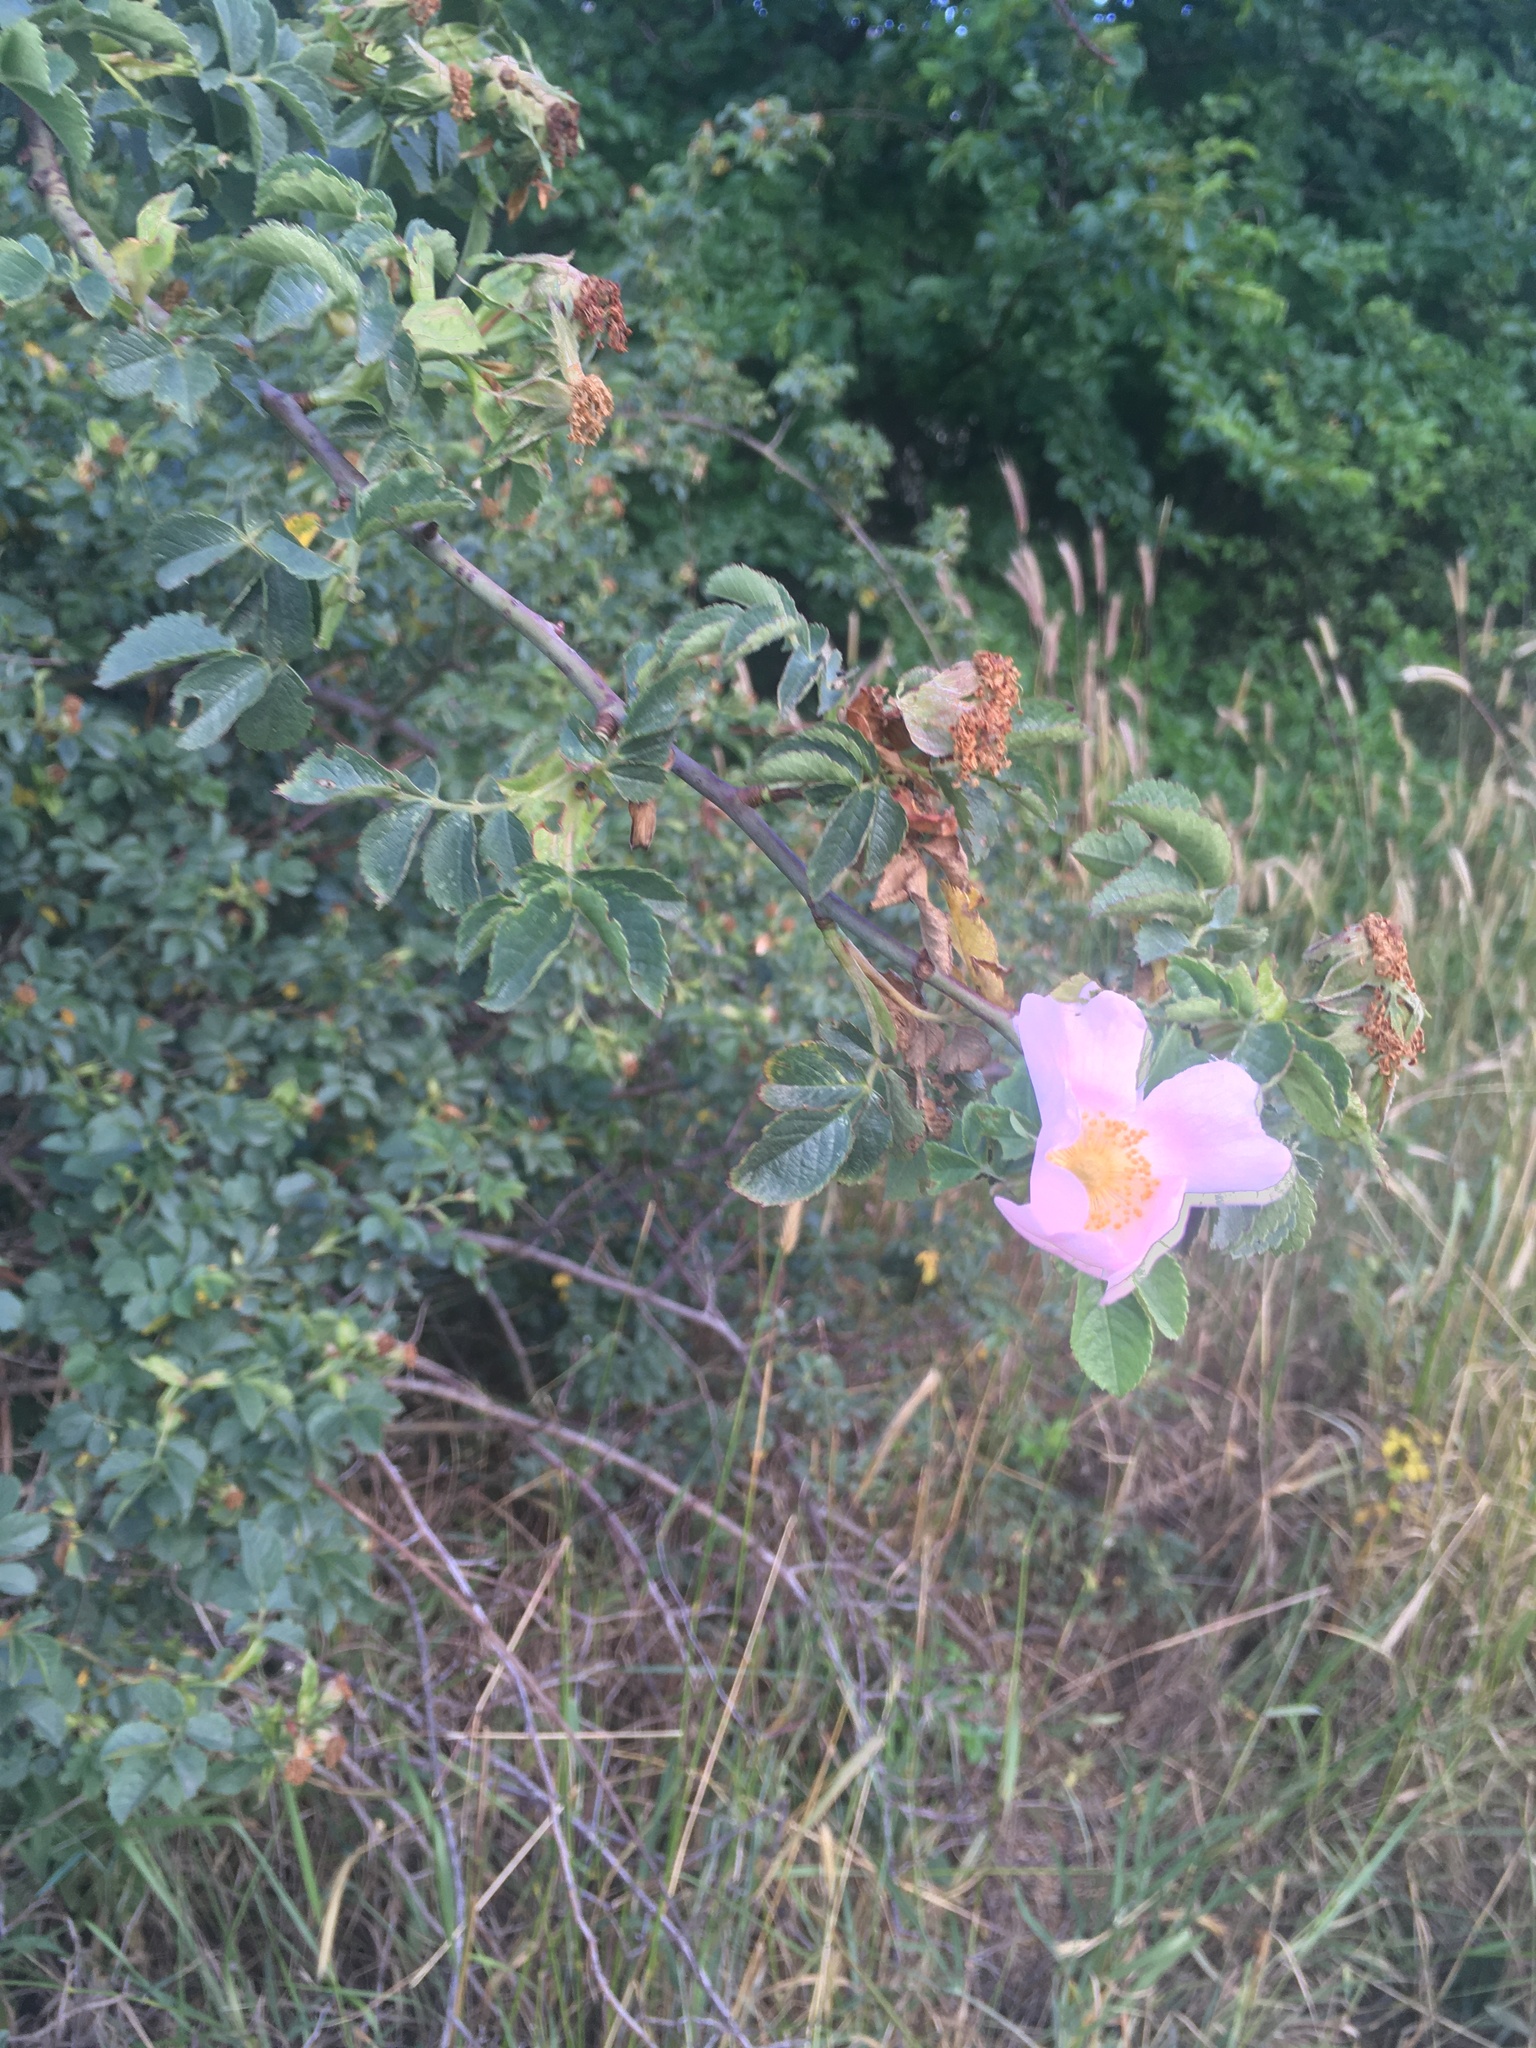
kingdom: Plantae
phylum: Tracheophyta
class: Magnoliopsida
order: Rosales
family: Rosaceae
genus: Rosa
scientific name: Rosa
